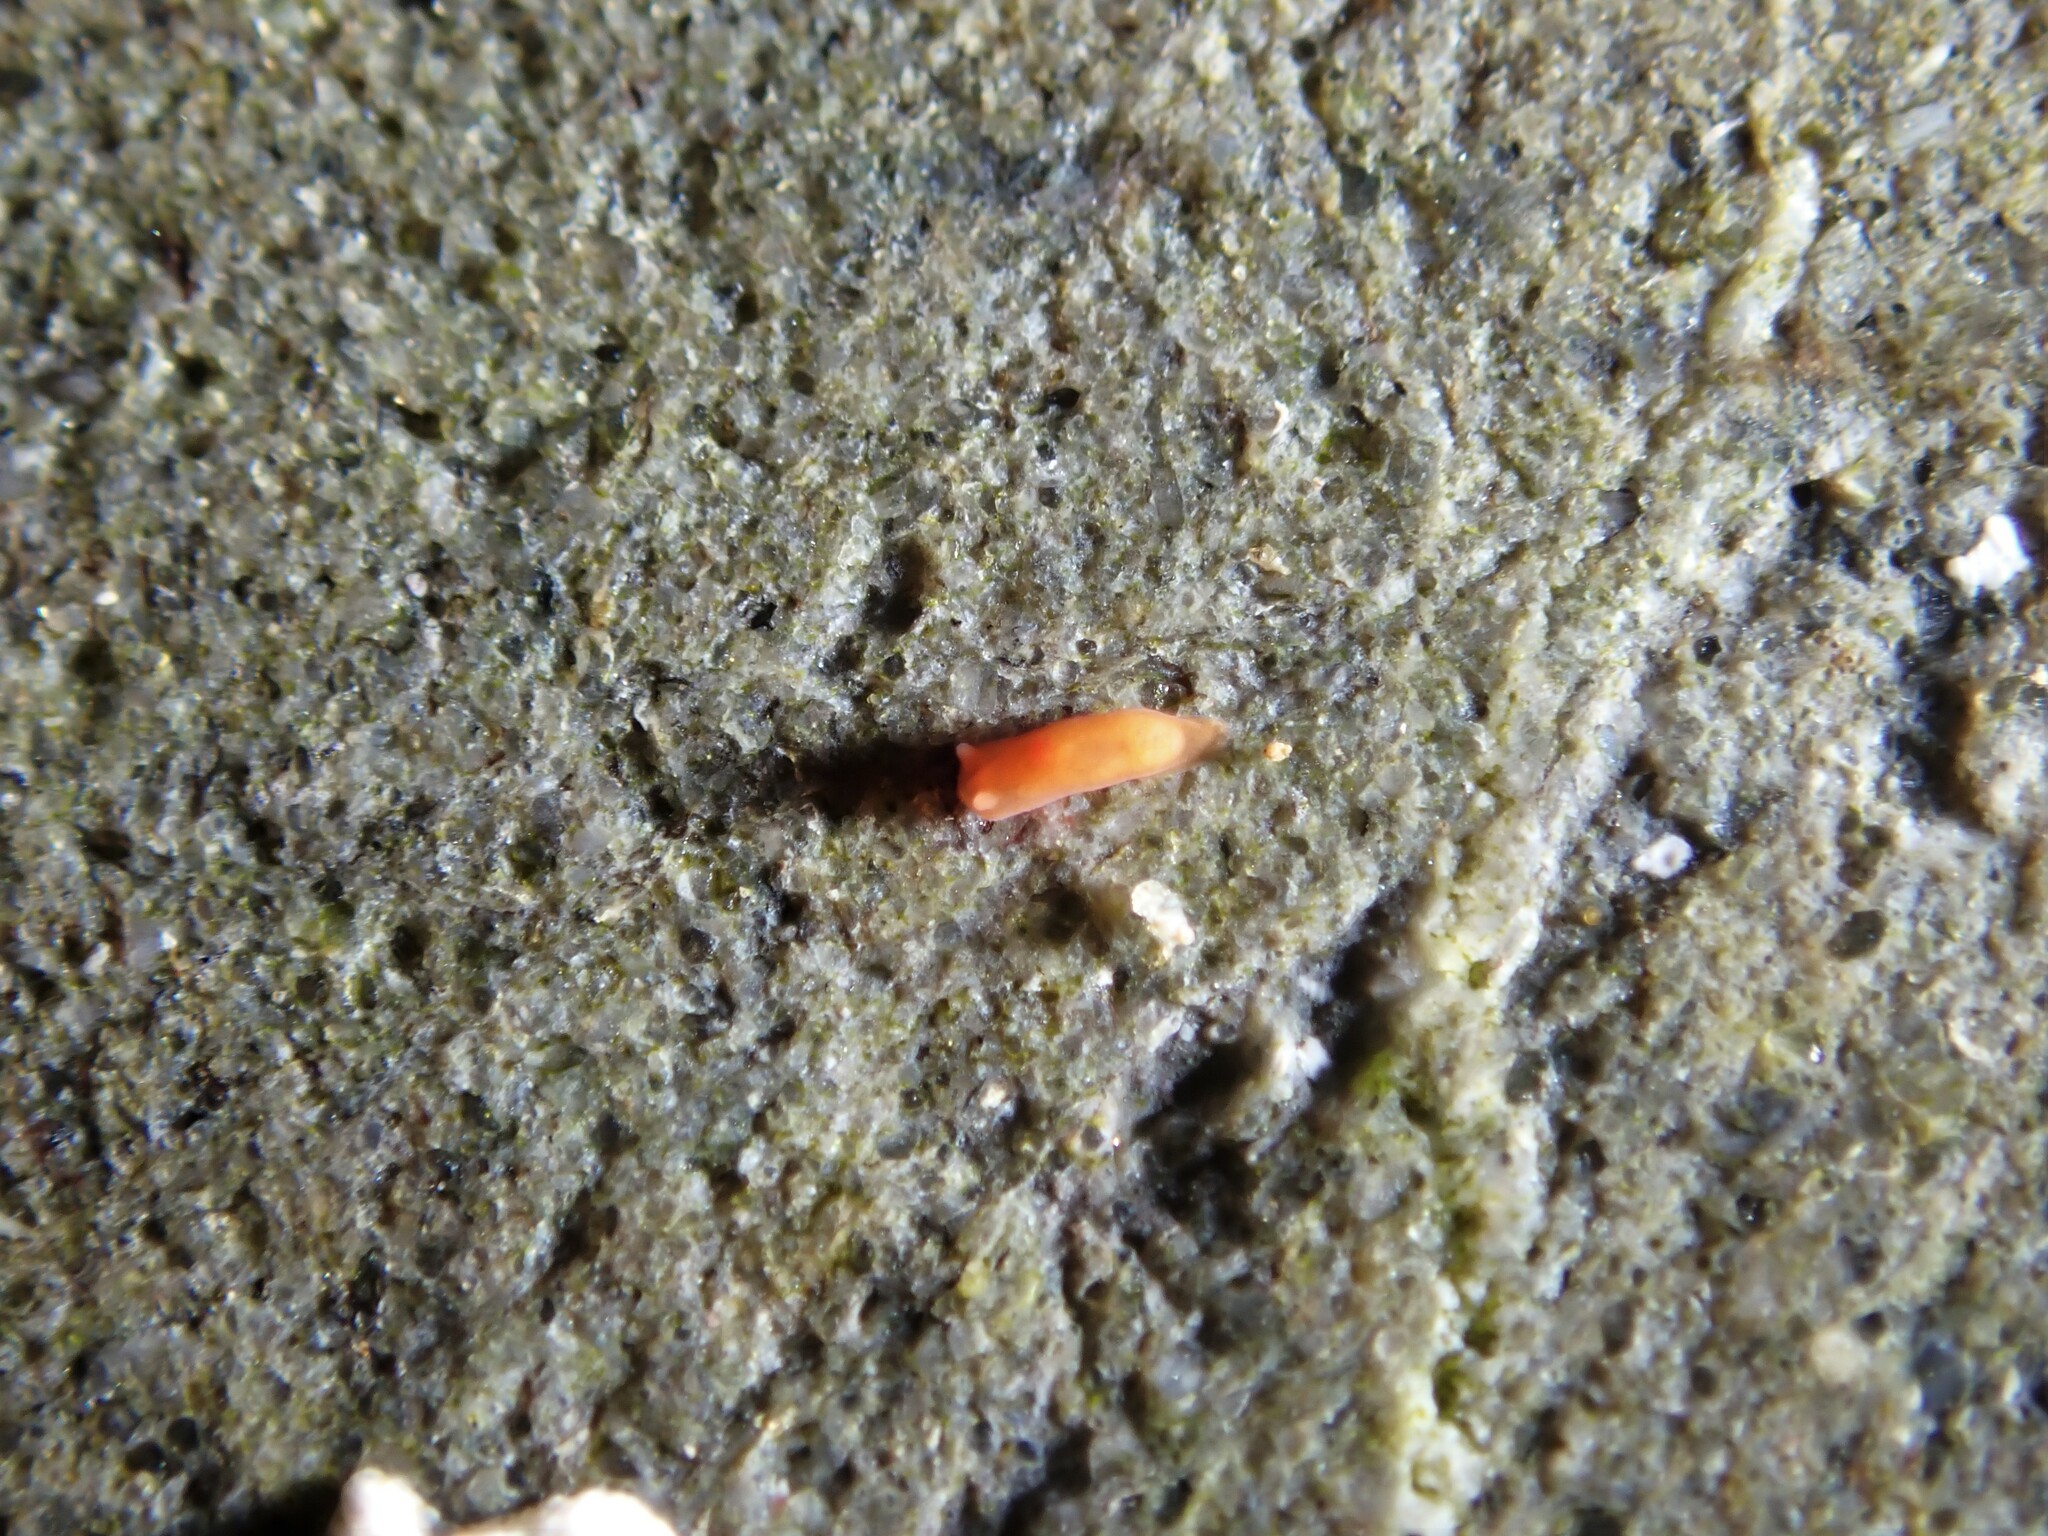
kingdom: Animalia
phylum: Mollusca
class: Gastropoda
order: Nudibranchia
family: Okadaiidae
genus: Vayssierea
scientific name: Vayssierea cinnabarea
